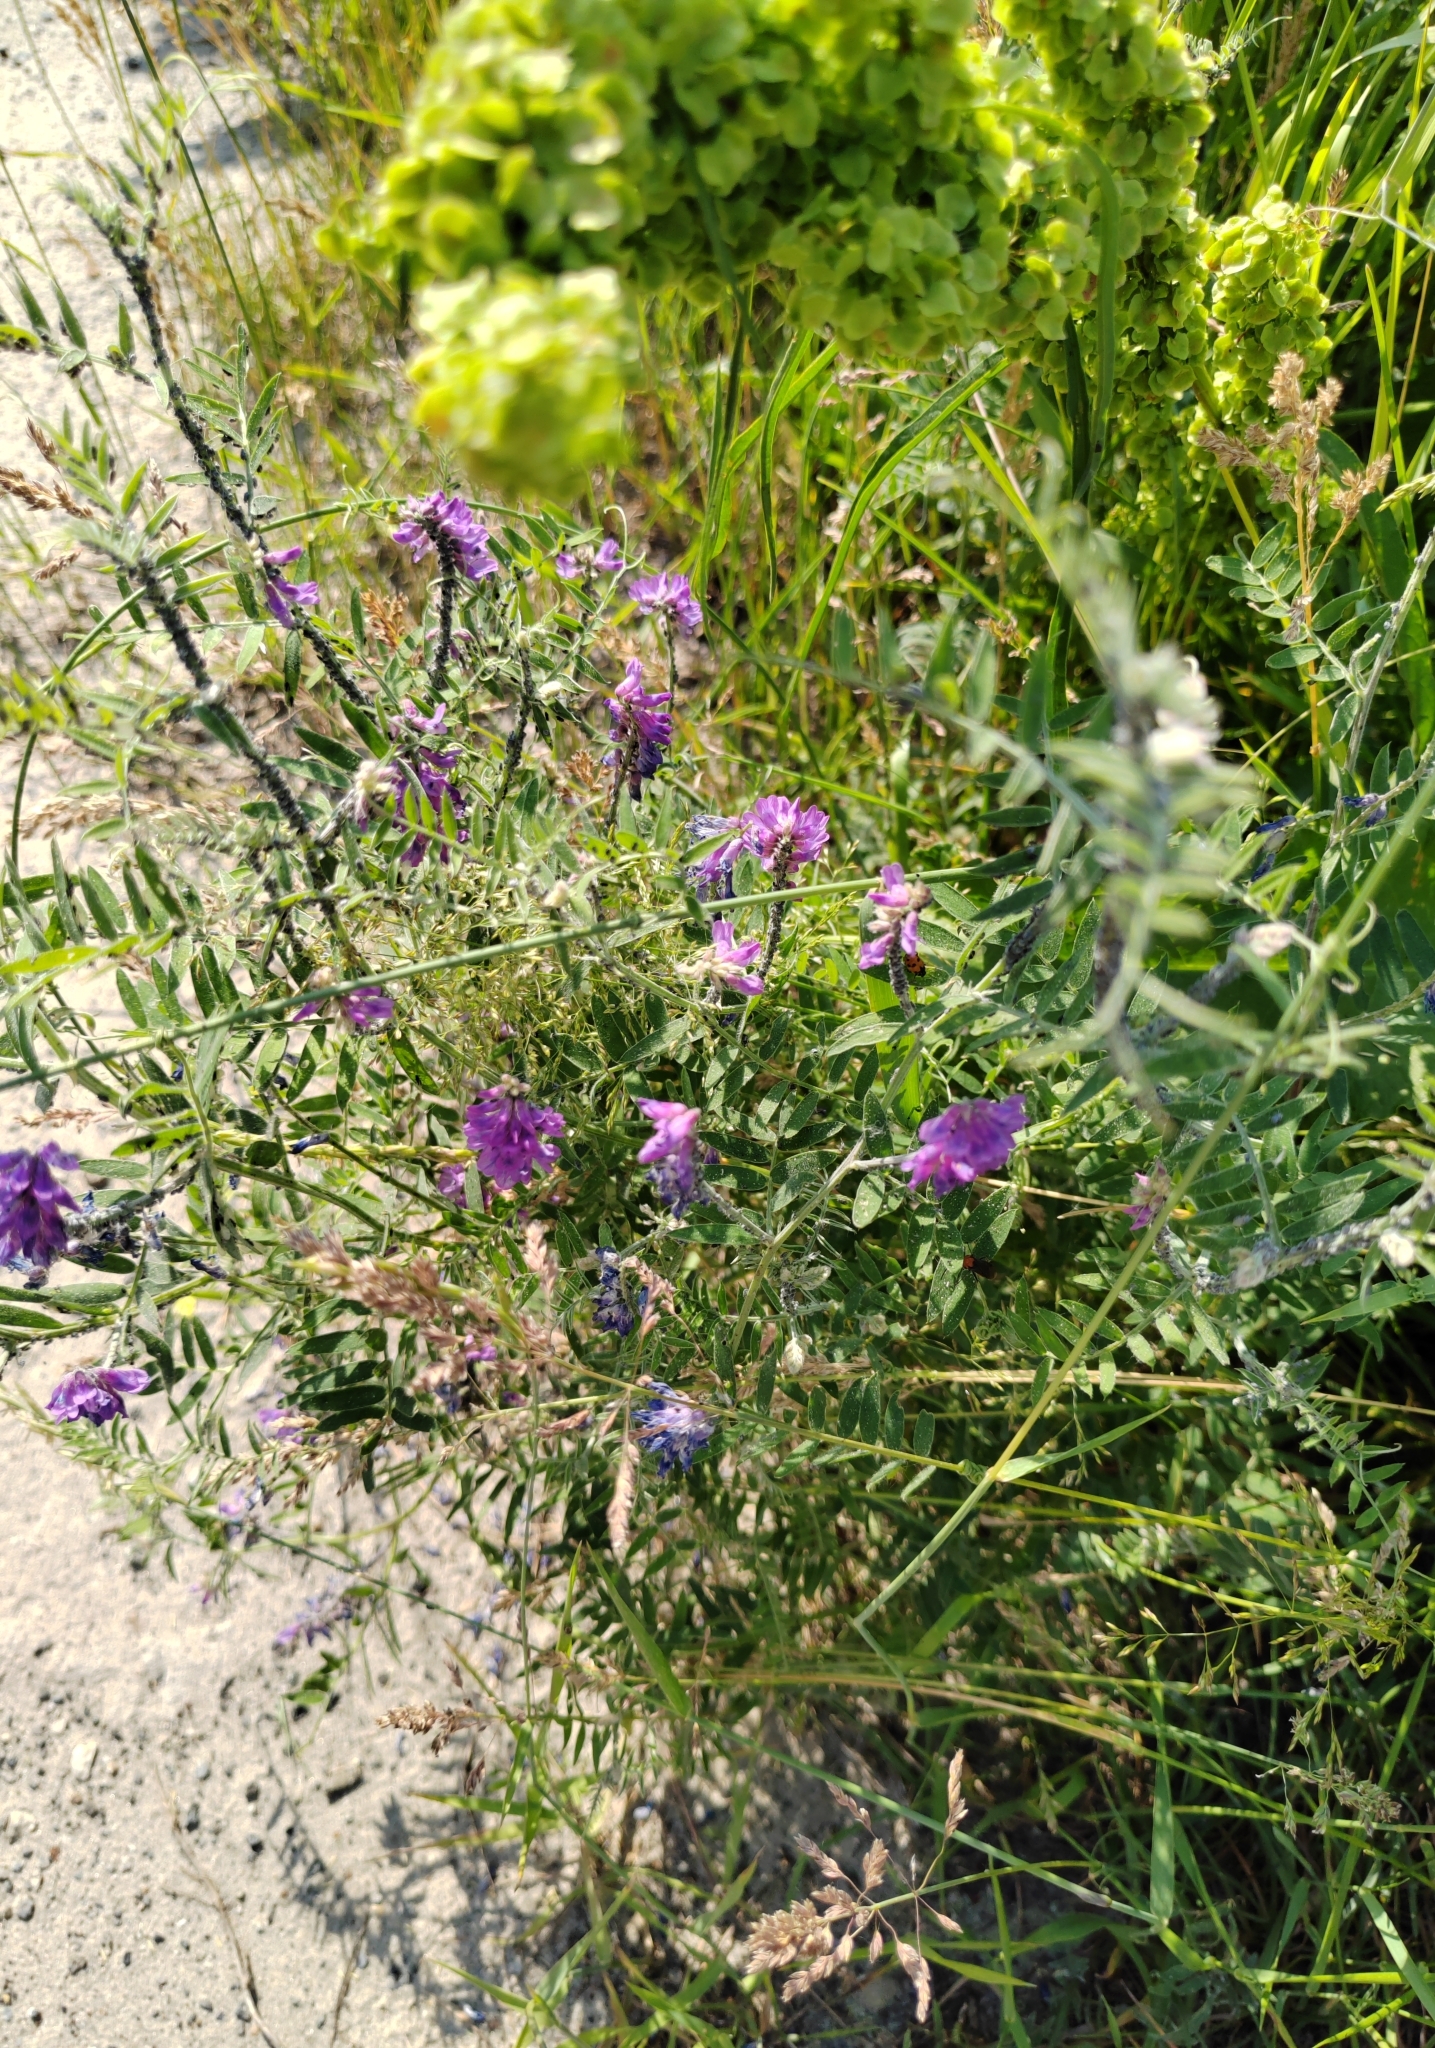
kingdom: Plantae
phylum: Tracheophyta
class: Magnoliopsida
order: Fabales
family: Fabaceae
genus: Vicia
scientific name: Vicia cracca
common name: Bird vetch
